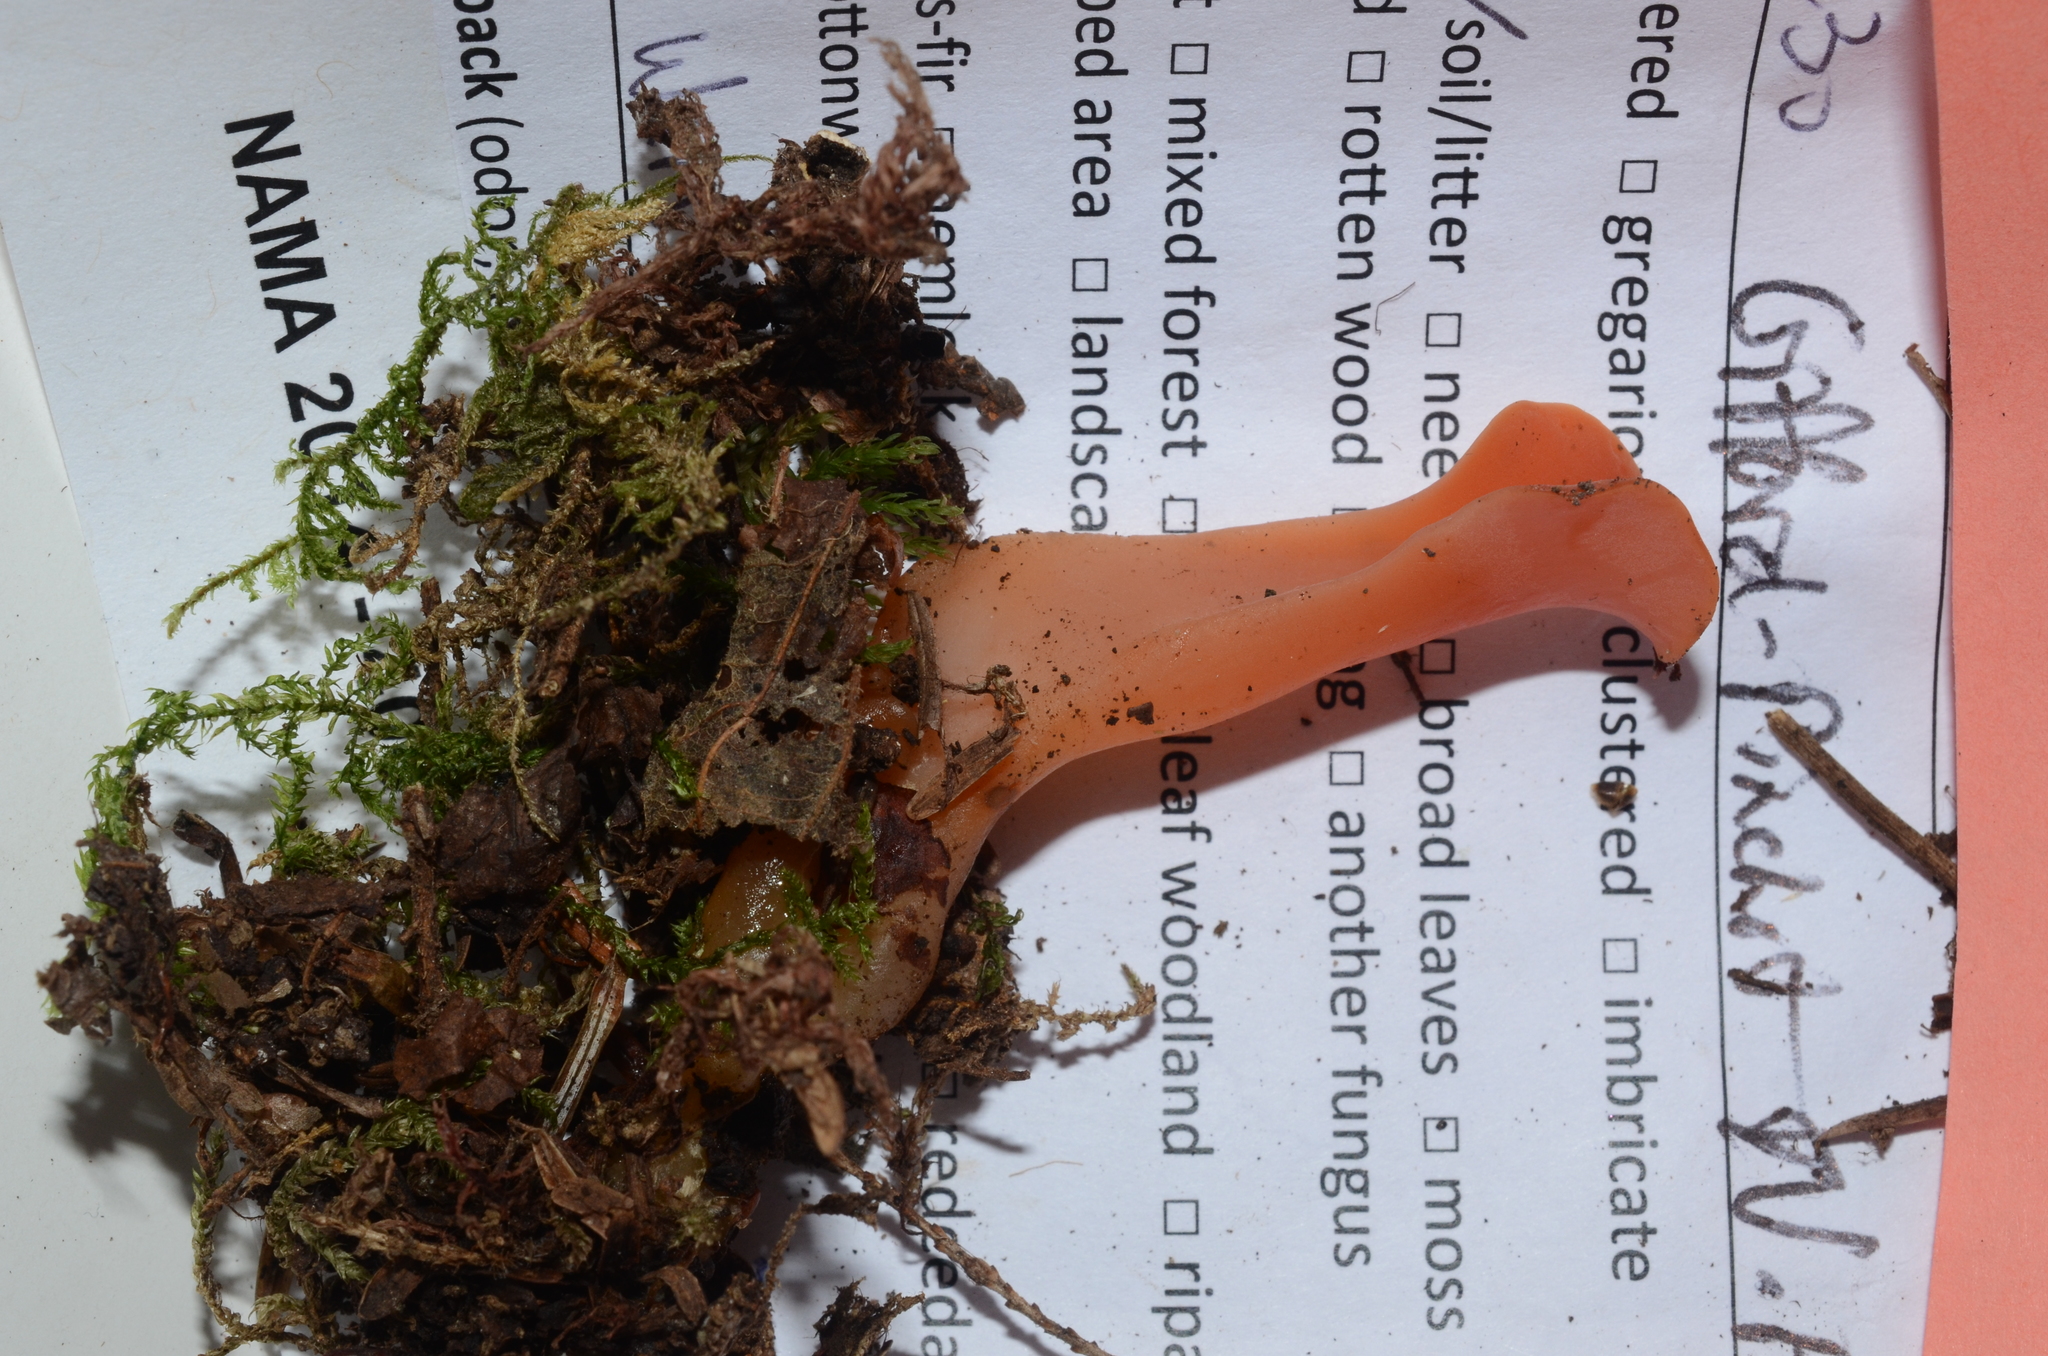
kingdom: Fungi
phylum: Basidiomycota
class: Agaricomycetes
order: Auriculariales
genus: Guepinia
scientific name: Guepinia helvelloides
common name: Salmon salad
